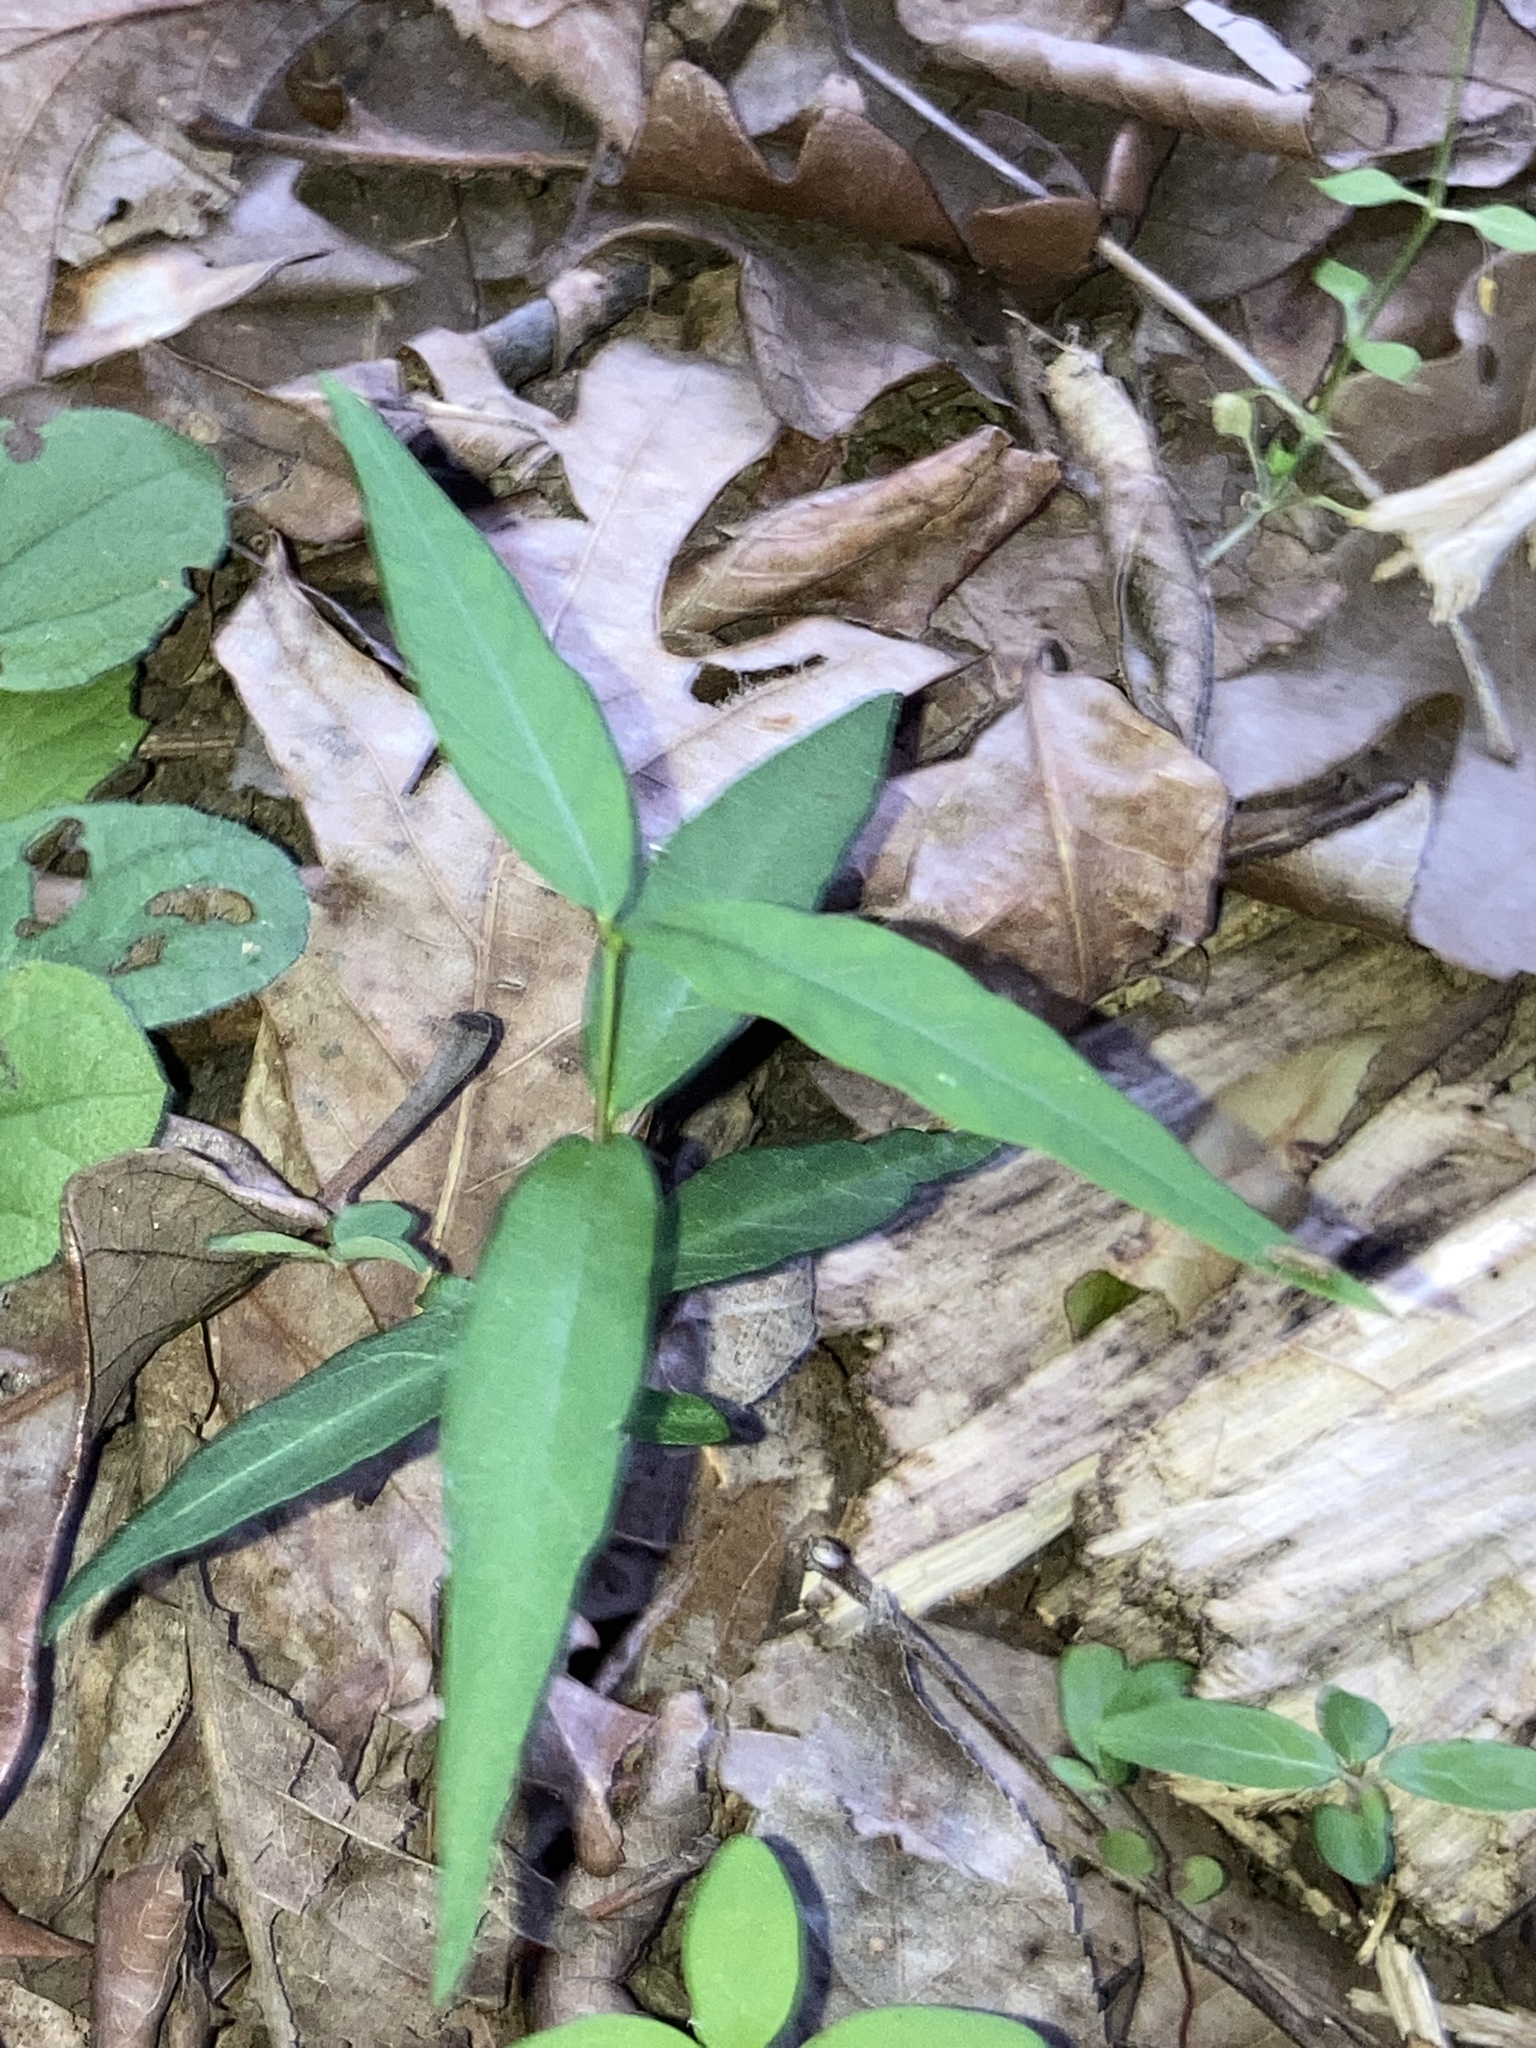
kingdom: Plantae
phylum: Tracheophyta
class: Magnoliopsida
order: Gentianales
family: Apocynaceae
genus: Thyrsanthella
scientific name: Thyrsanthella difformis
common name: Climbing dogbane
